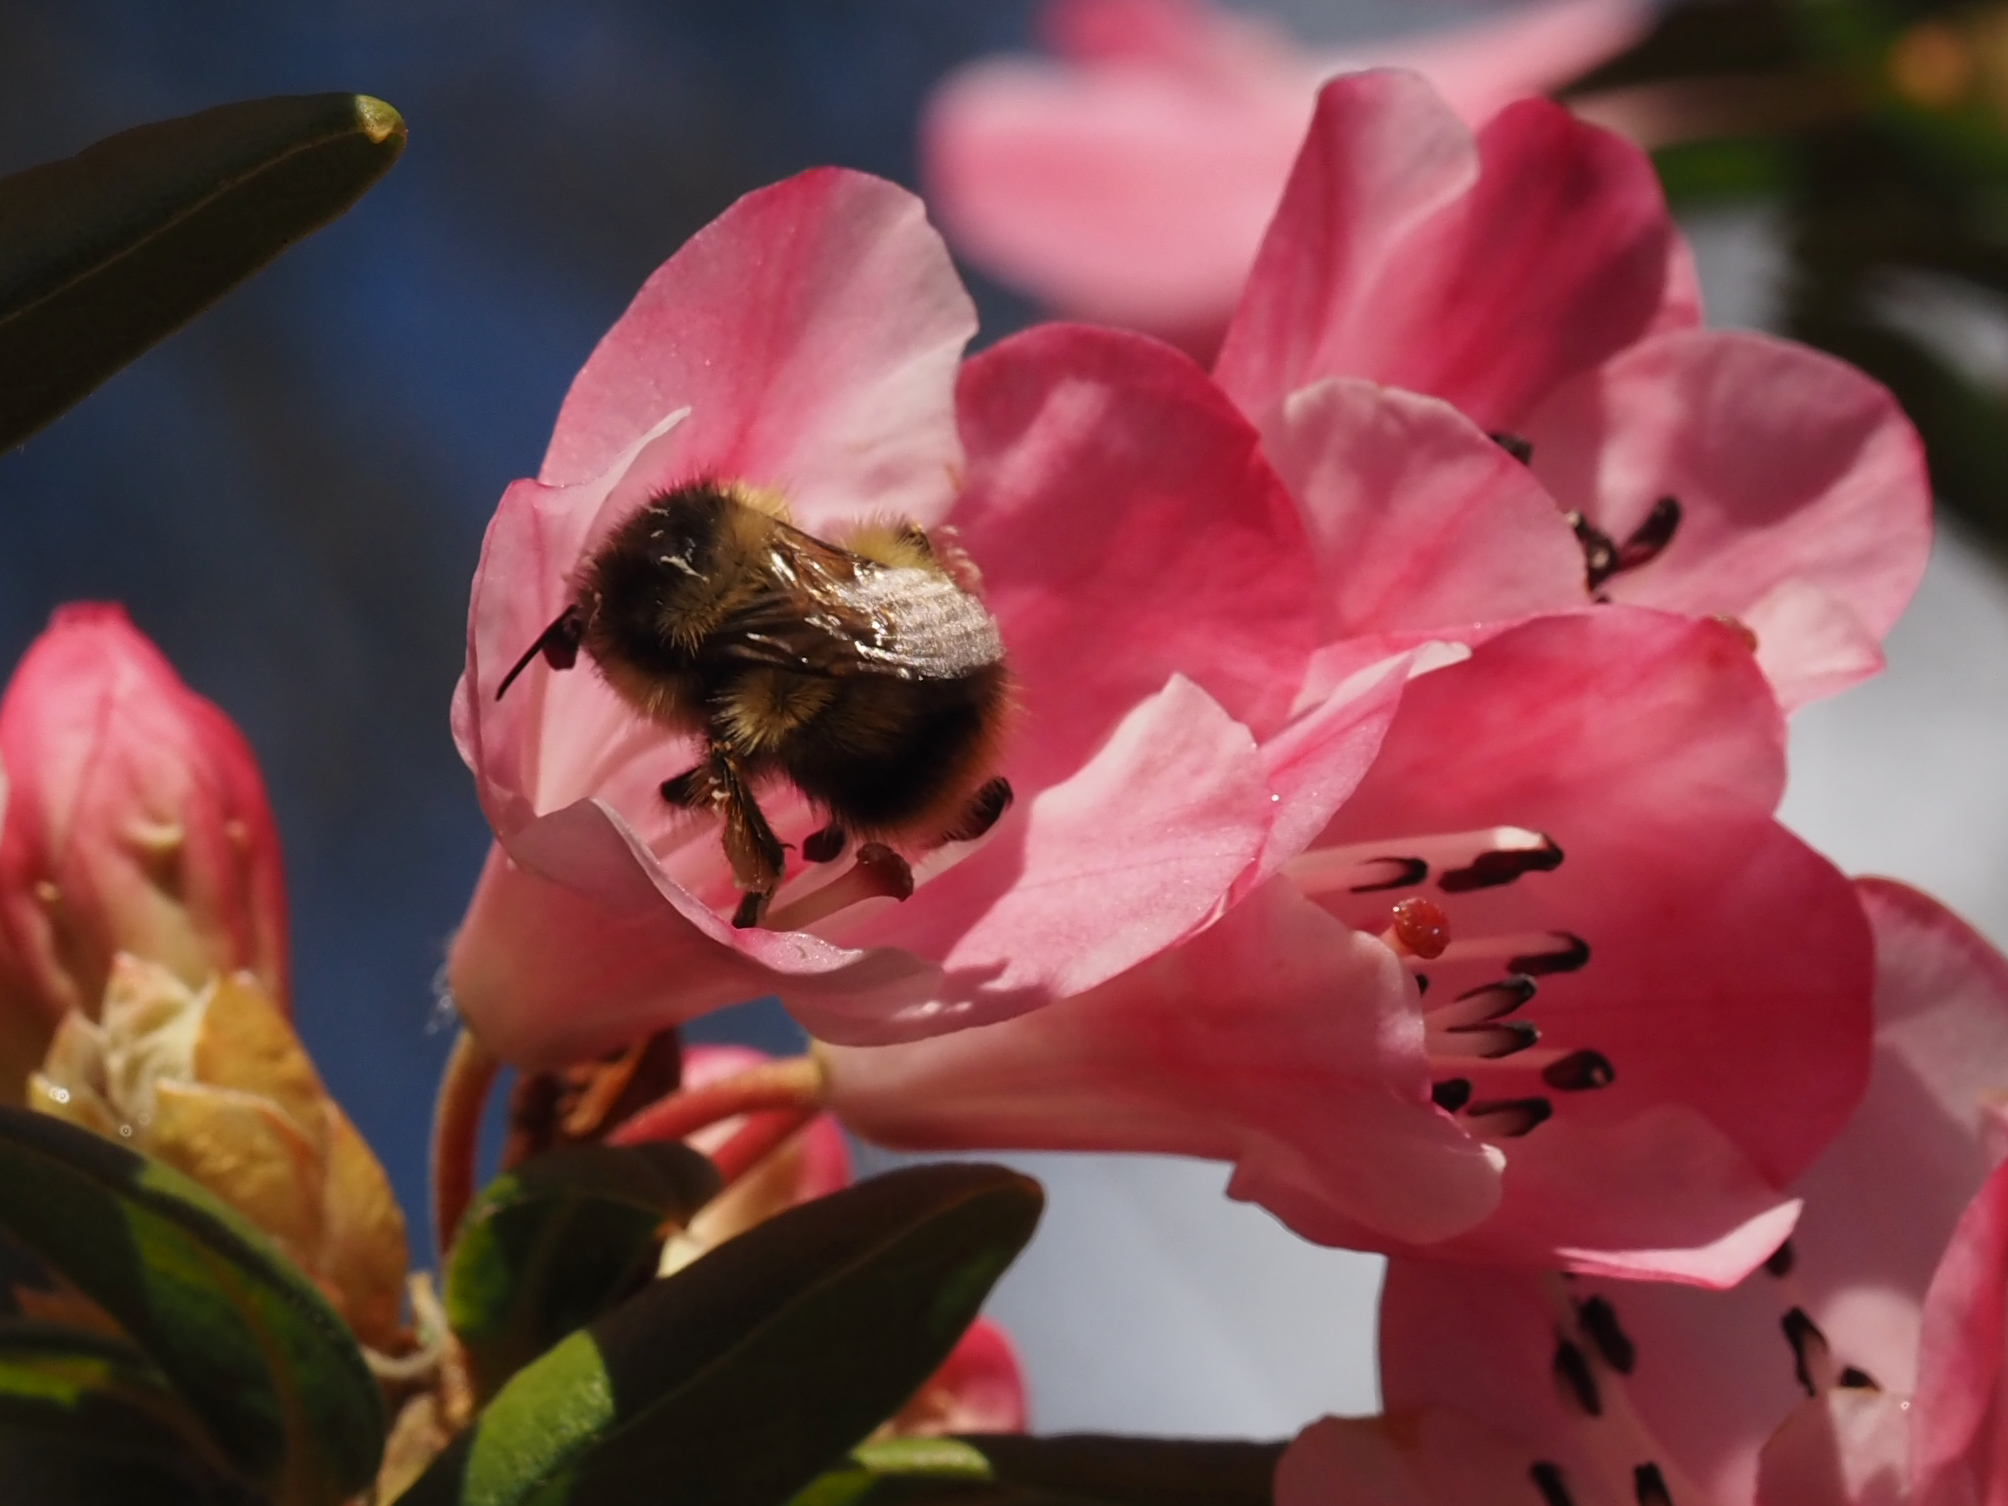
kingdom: Animalia
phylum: Arthropoda
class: Insecta
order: Hymenoptera
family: Apidae
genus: Bombus
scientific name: Bombus mixtus
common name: Fuzzy-horned bumble bee
